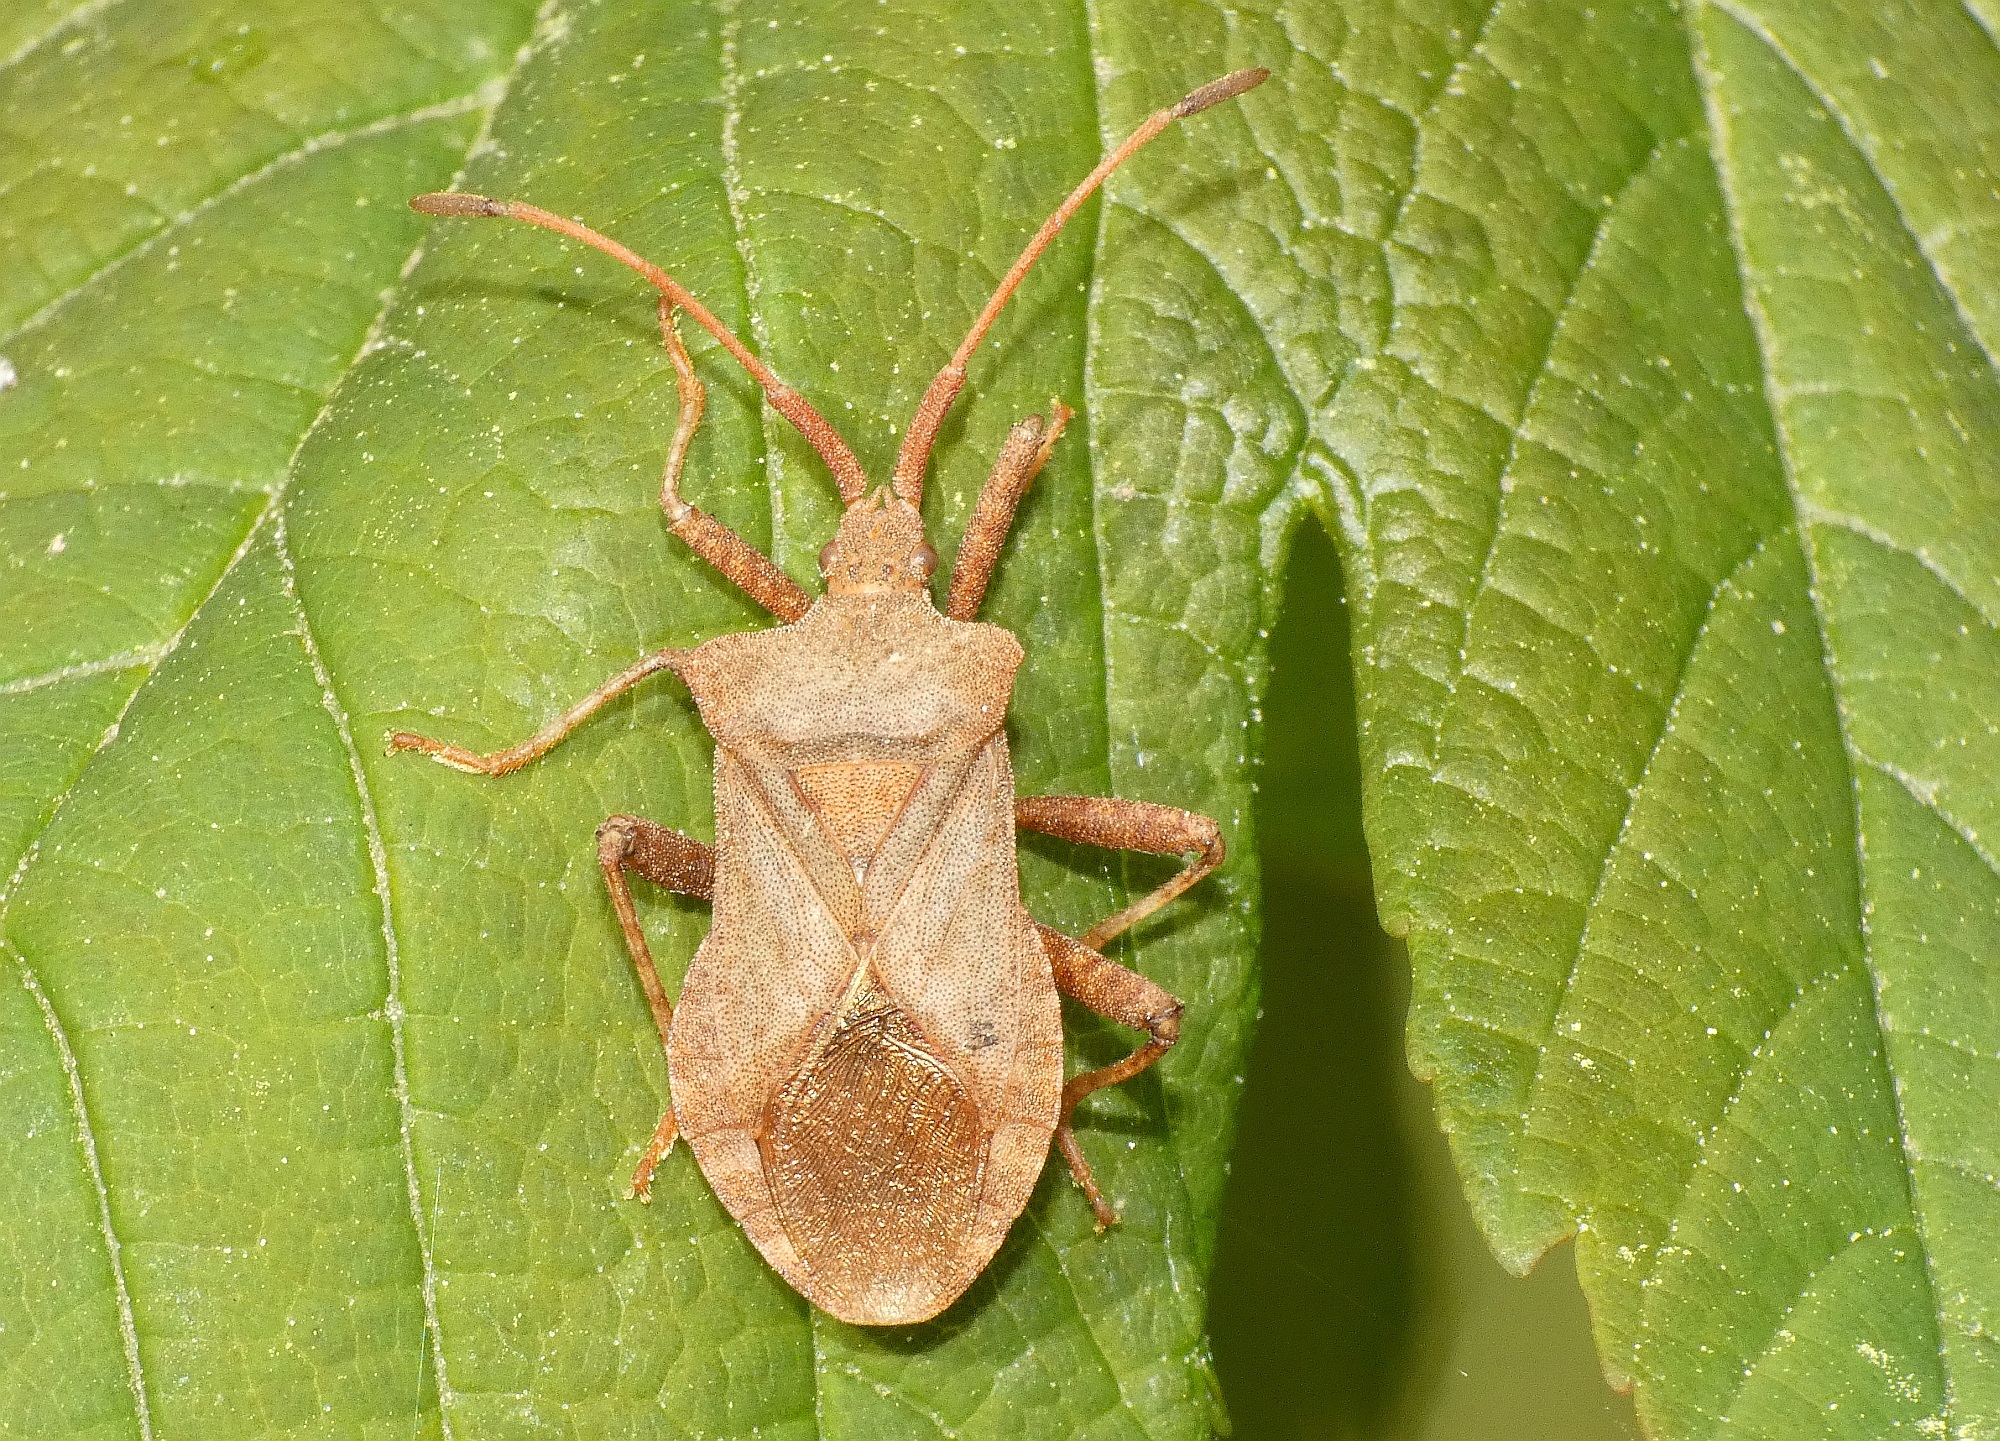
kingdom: Animalia
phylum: Arthropoda
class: Insecta
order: Hemiptera
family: Coreidae
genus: Coreus
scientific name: Coreus marginatus
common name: Dock bug
